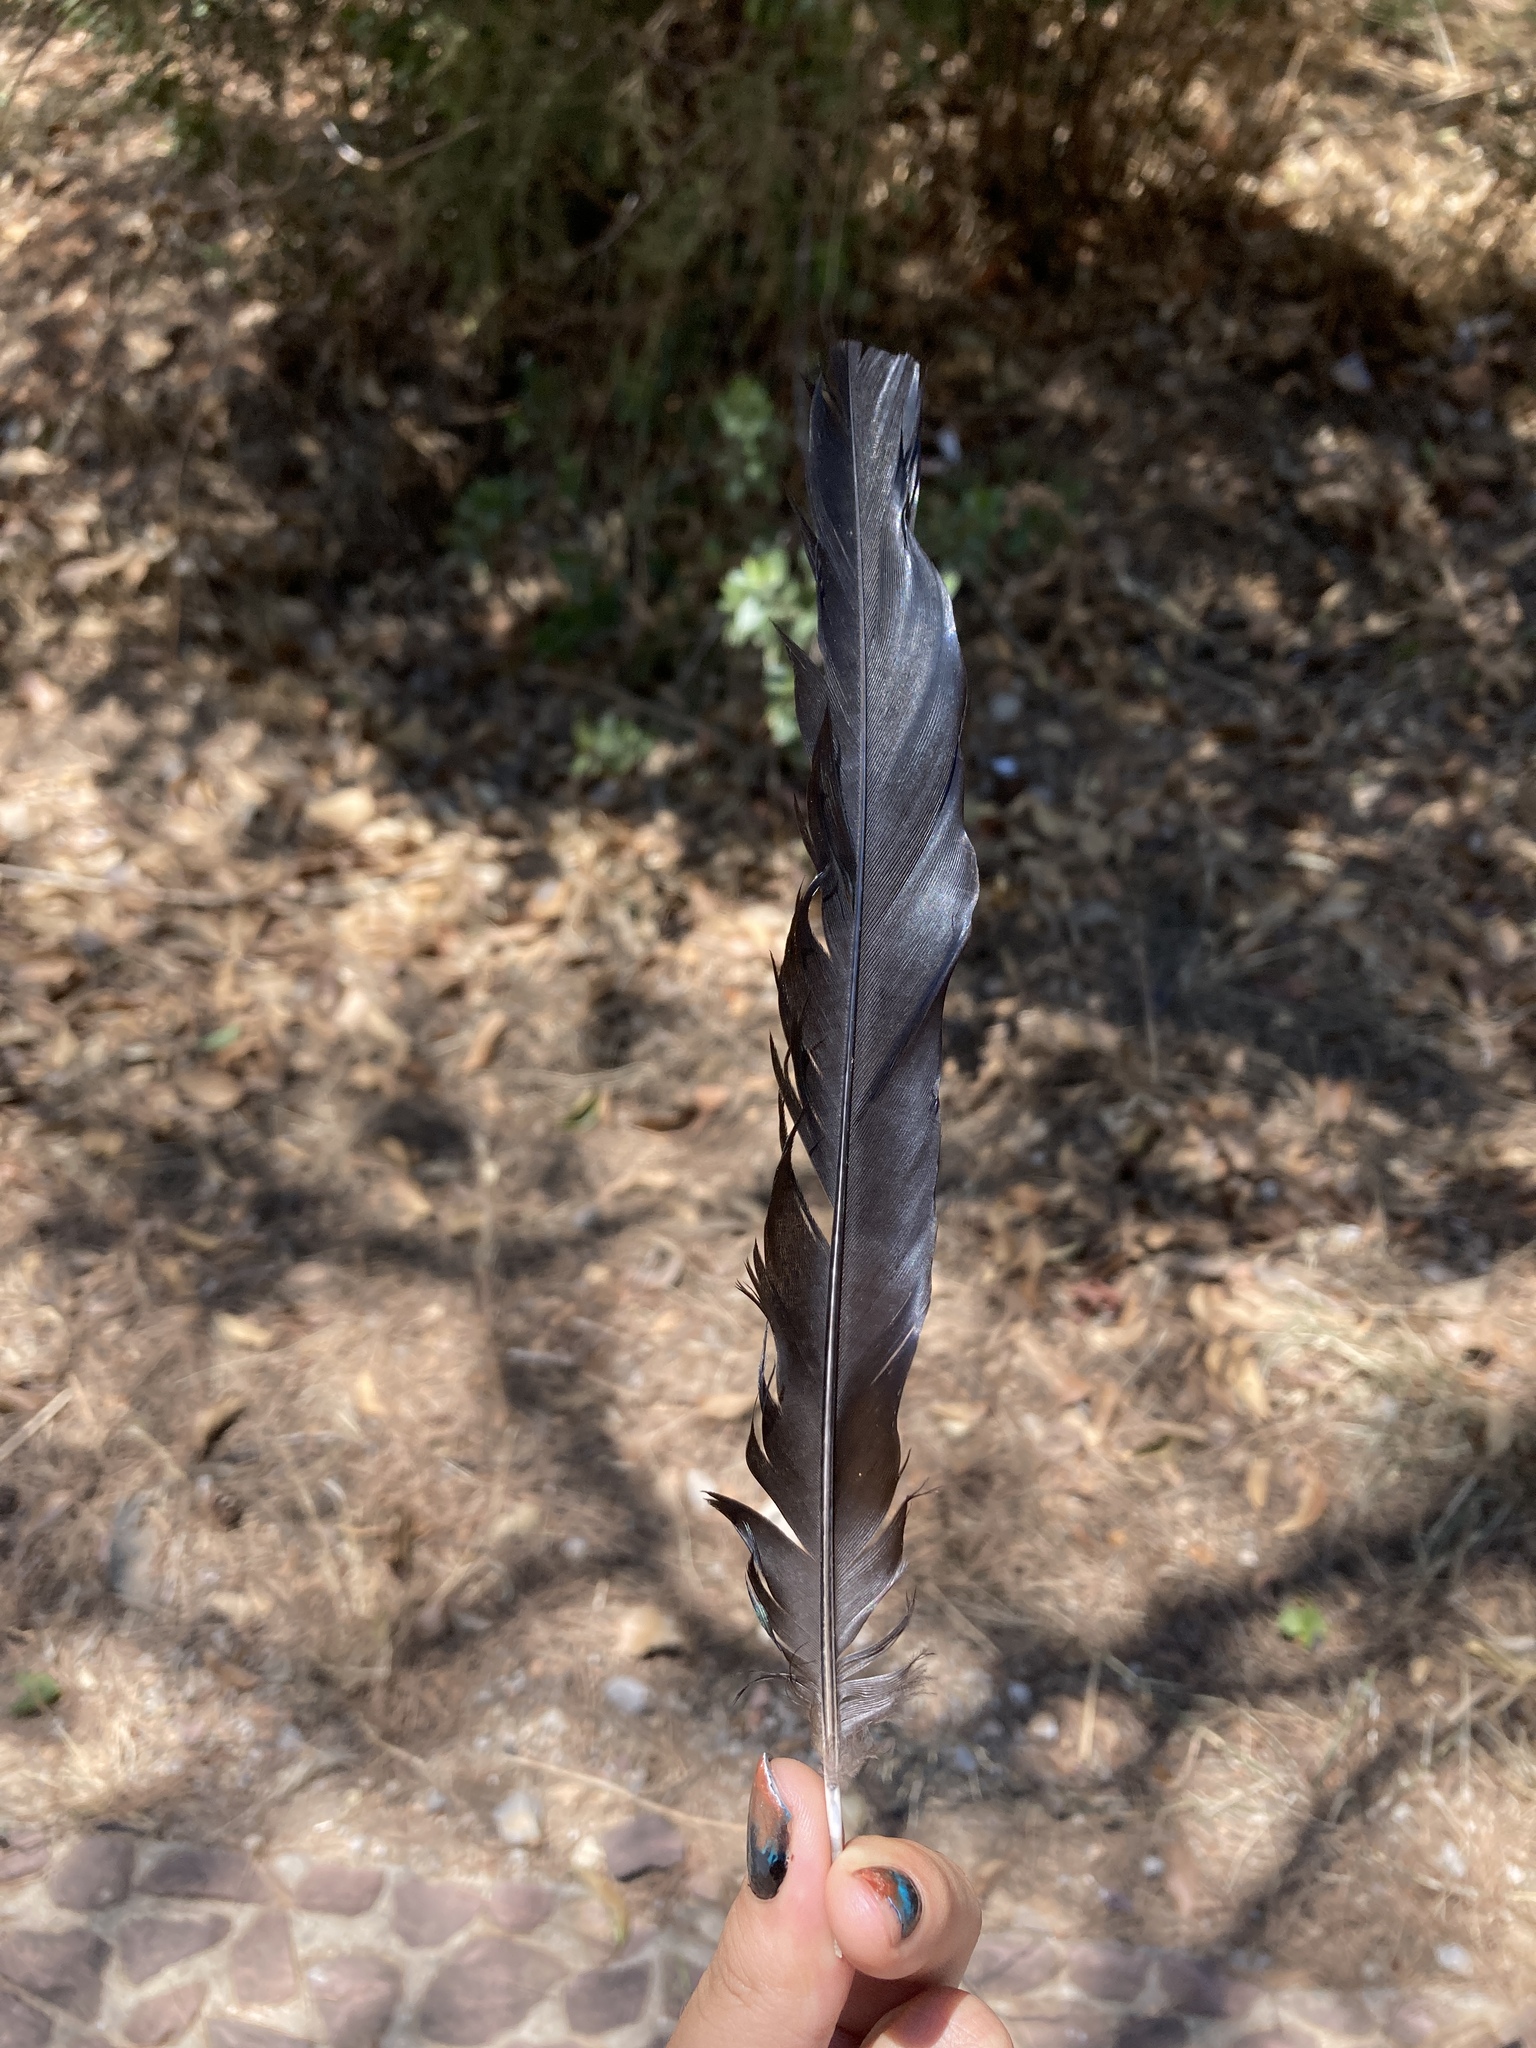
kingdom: Animalia
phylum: Chordata
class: Aves
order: Passeriformes
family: Corvidae
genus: Pica
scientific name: Pica pica
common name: Eurasian magpie
